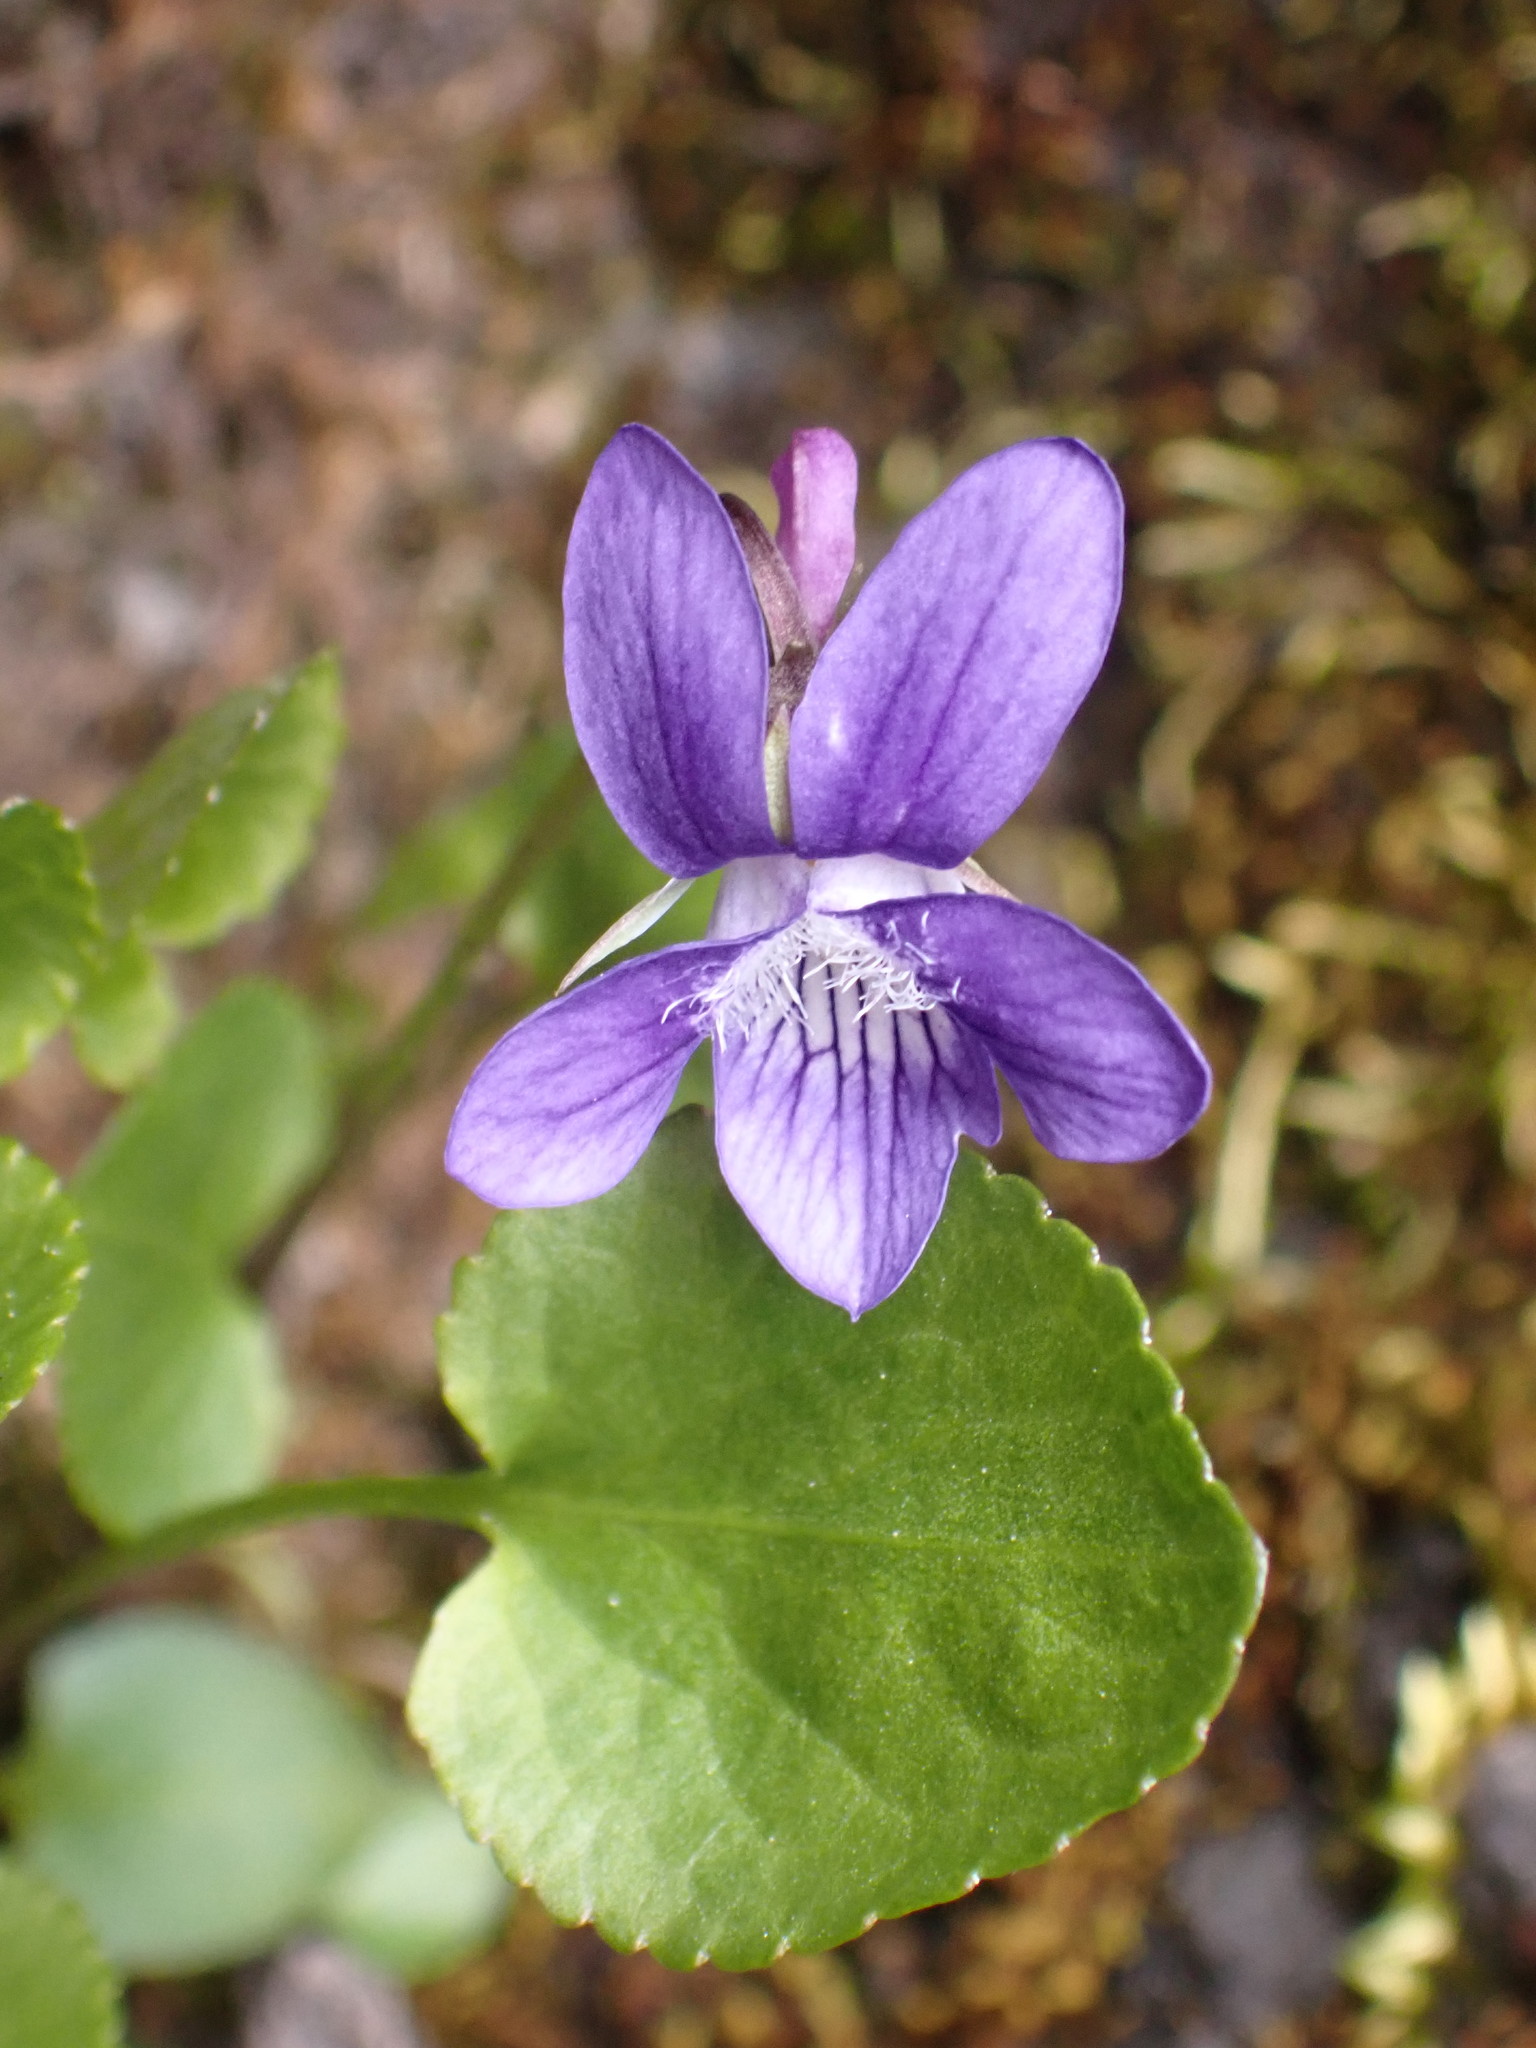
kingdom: Plantae
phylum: Tracheophyta
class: Magnoliopsida
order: Malpighiales
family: Violaceae
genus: Viola
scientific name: Viola adunca
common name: Sand violet
